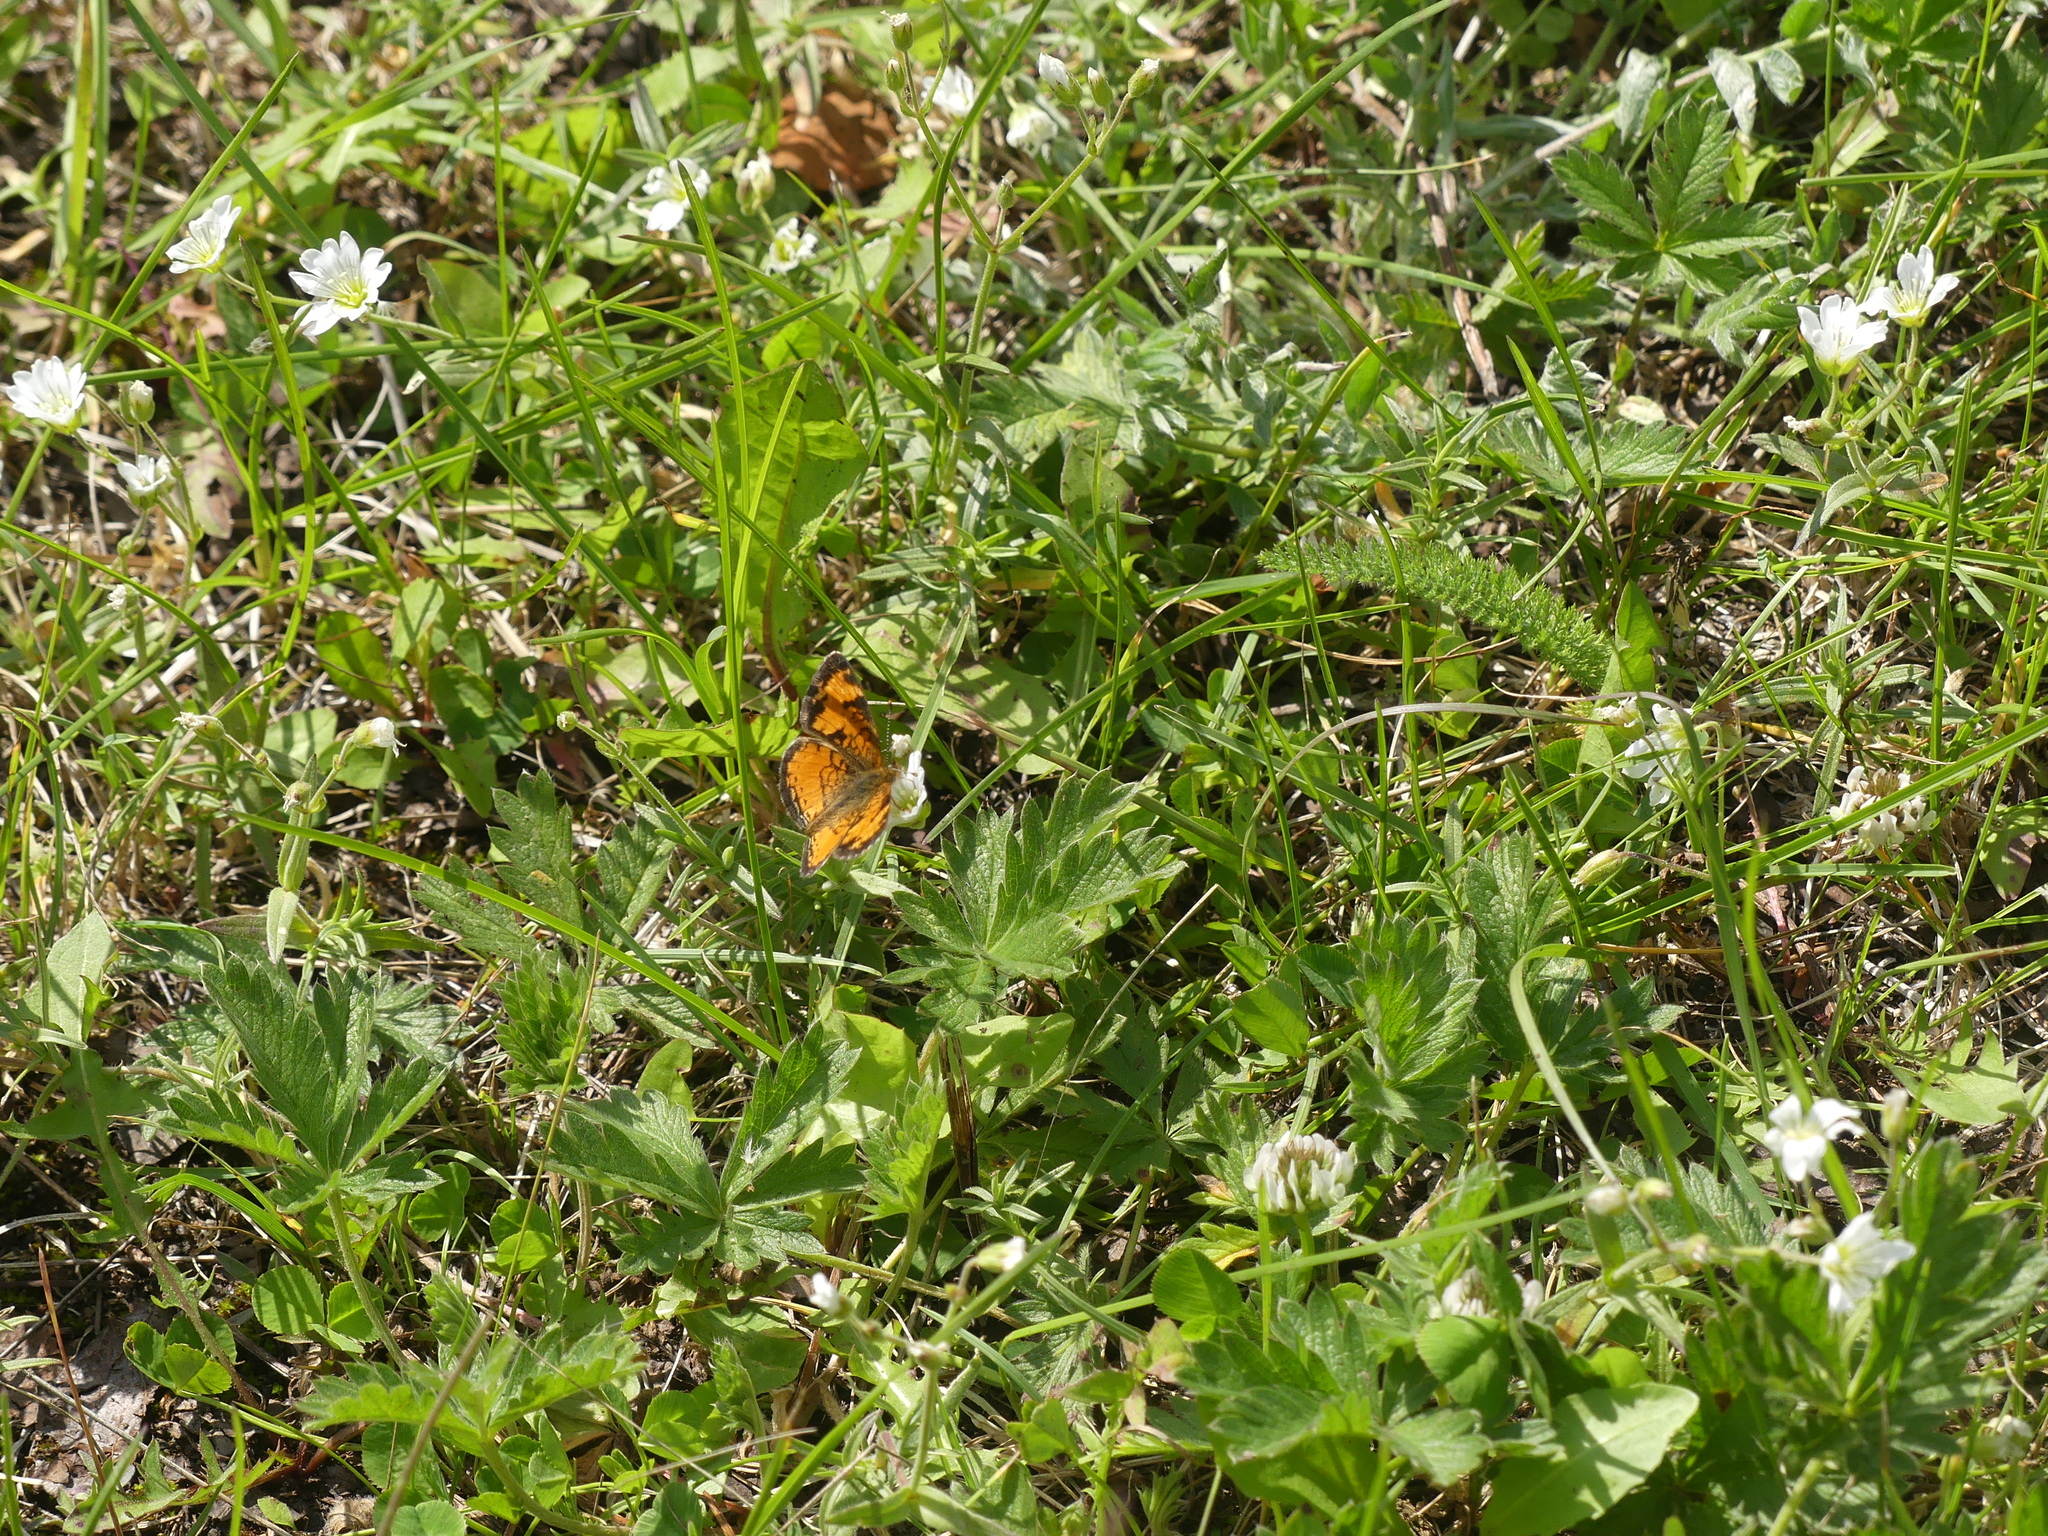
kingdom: Animalia
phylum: Arthropoda
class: Insecta
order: Lepidoptera
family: Nymphalidae
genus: Phyciodes
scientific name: Phyciodes tharos
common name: Pearl crescent
